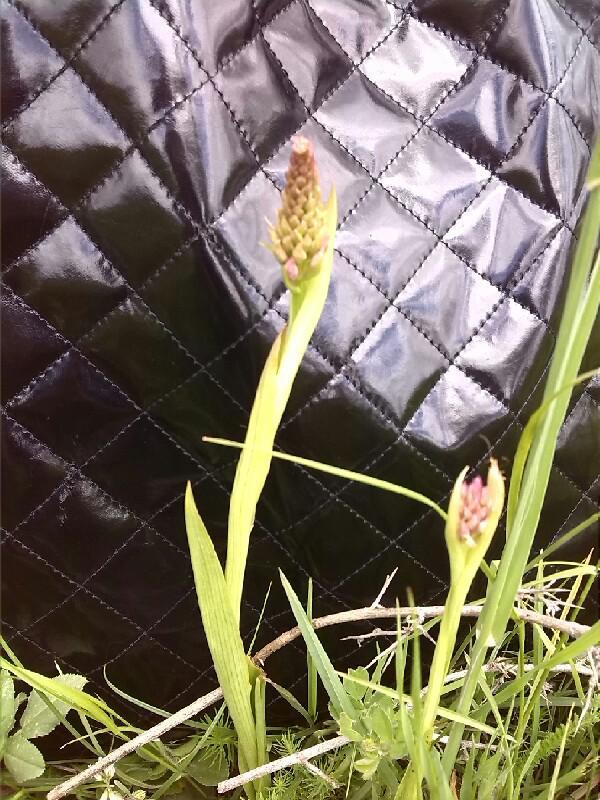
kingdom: Plantae
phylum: Tracheophyta
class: Liliopsida
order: Asparagales
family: Orchidaceae
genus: Gymnadenia
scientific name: Gymnadenia conopsea
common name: Fragrant orchid
